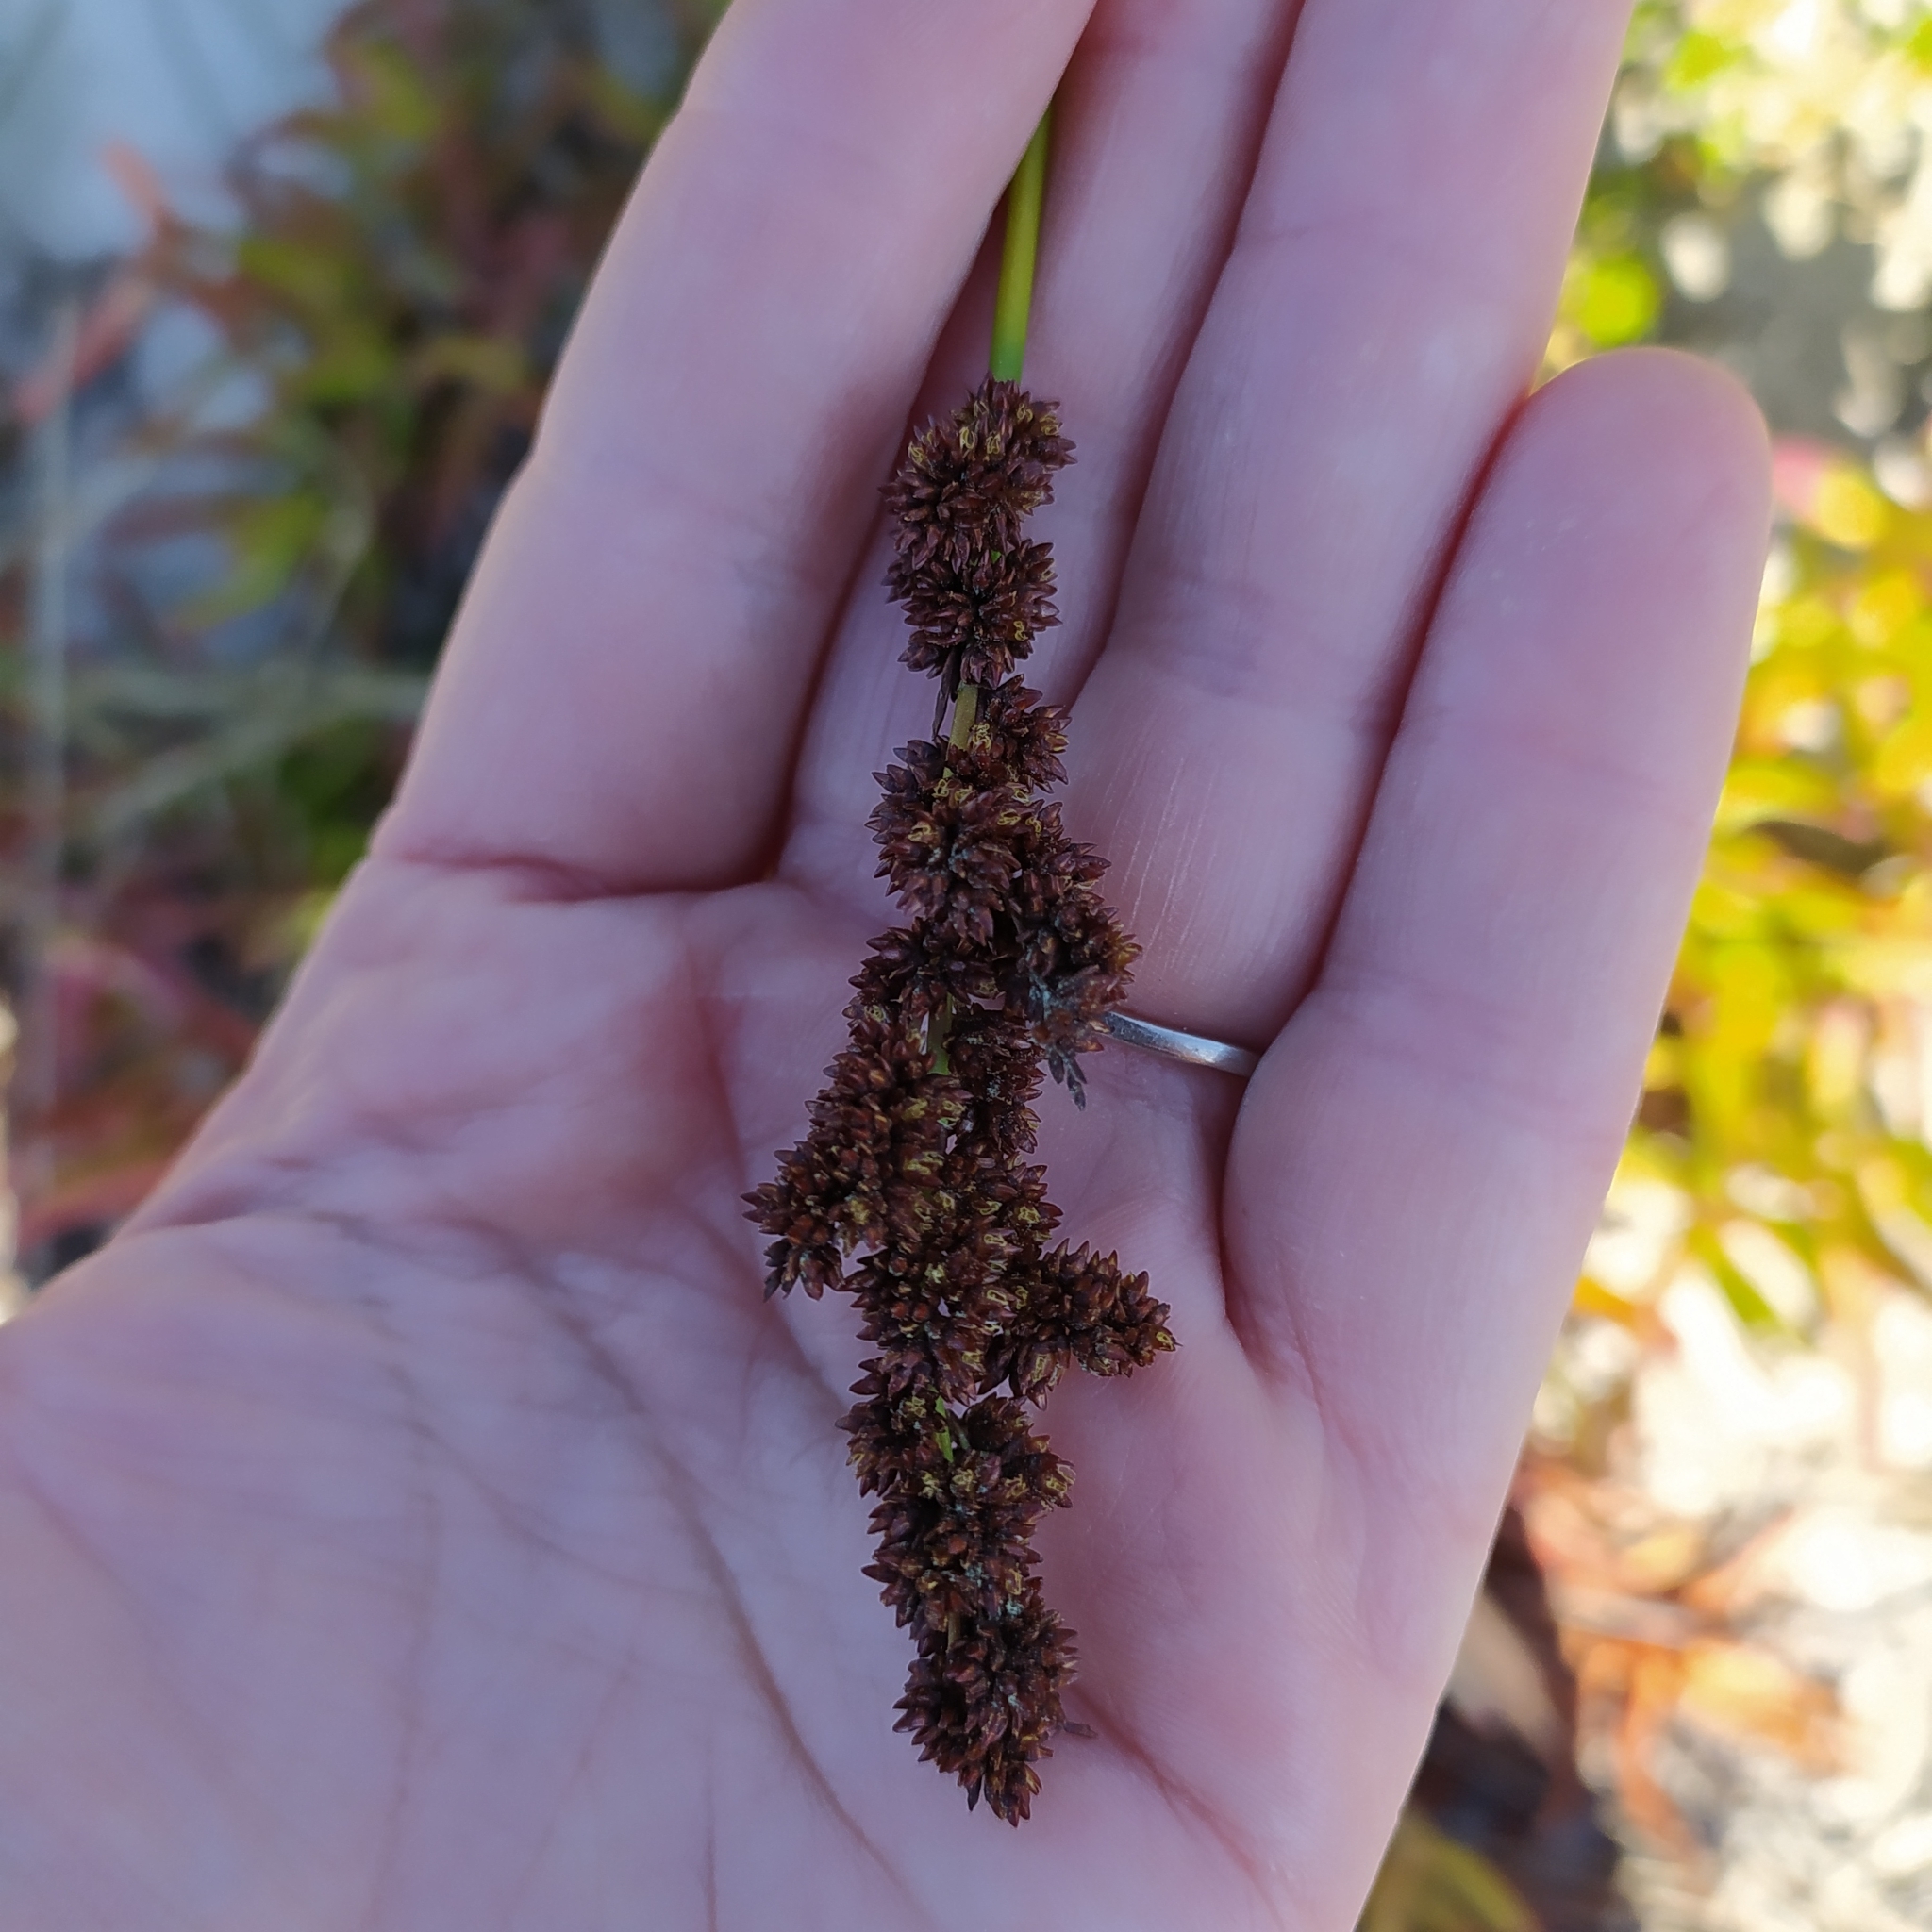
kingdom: Plantae
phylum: Tracheophyta
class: Liliopsida
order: Poales
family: Restionaceae
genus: Elegia
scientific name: Elegia tectorum
